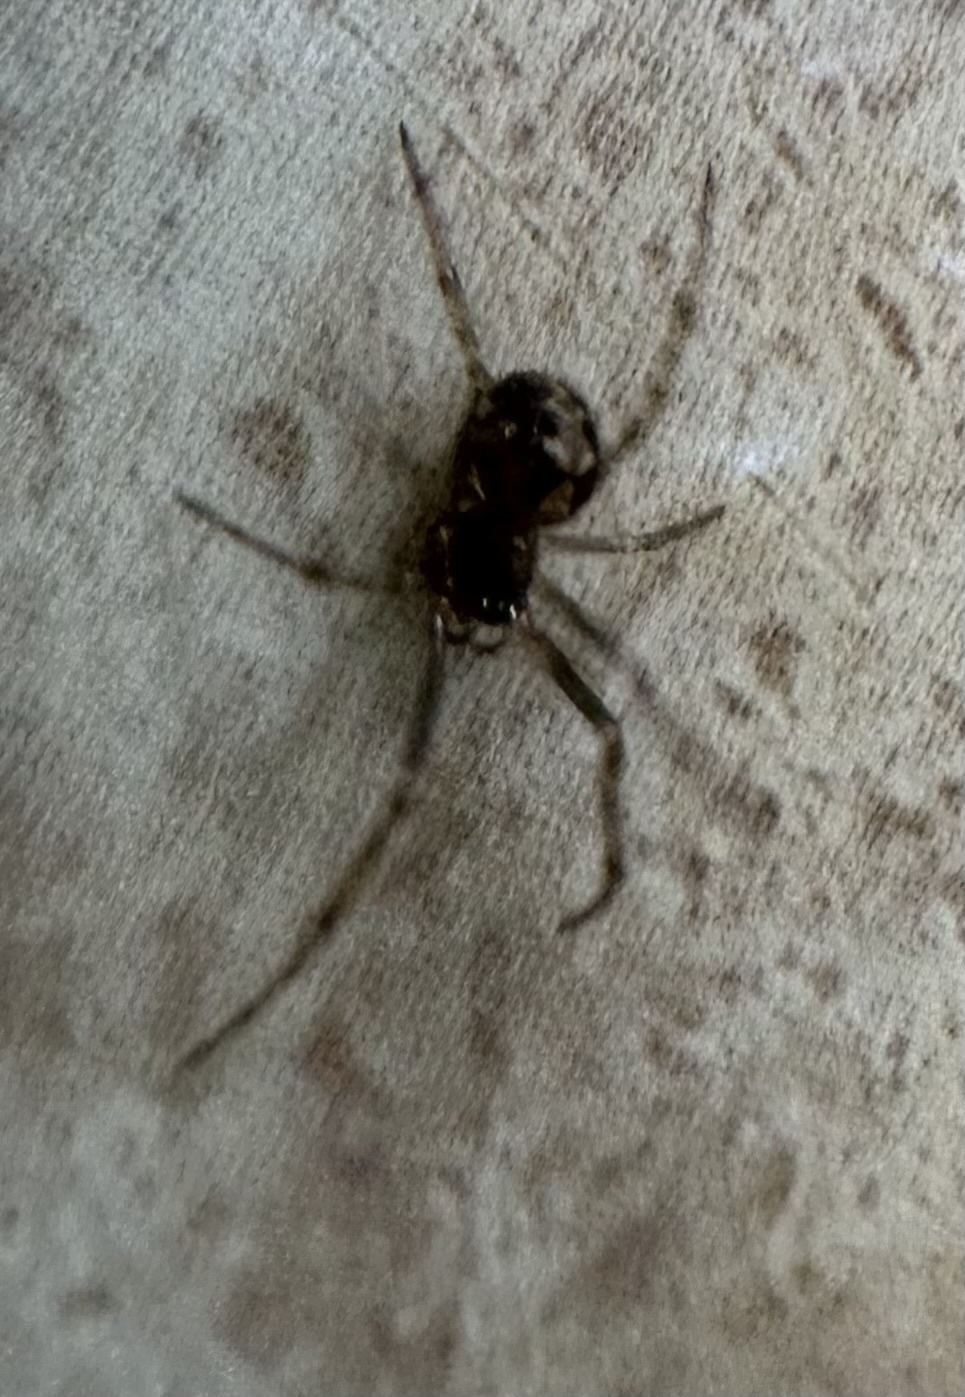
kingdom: Animalia
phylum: Arthropoda
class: Arachnida
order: Araneae
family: Theridiidae
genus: Steatoda
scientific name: Steatoda triangulosa
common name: Triangulate bud spider
